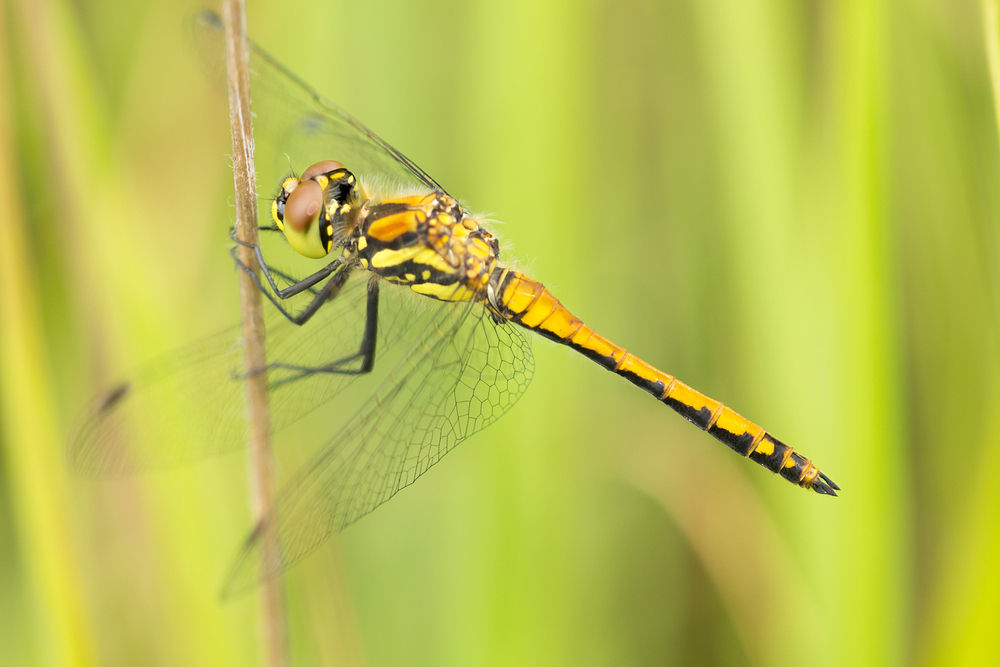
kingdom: Animalia
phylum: Arthropoda
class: Insecta
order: Odonata
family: Libellulidae
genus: Sympetrum
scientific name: Sympetrum danae
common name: Black darter
